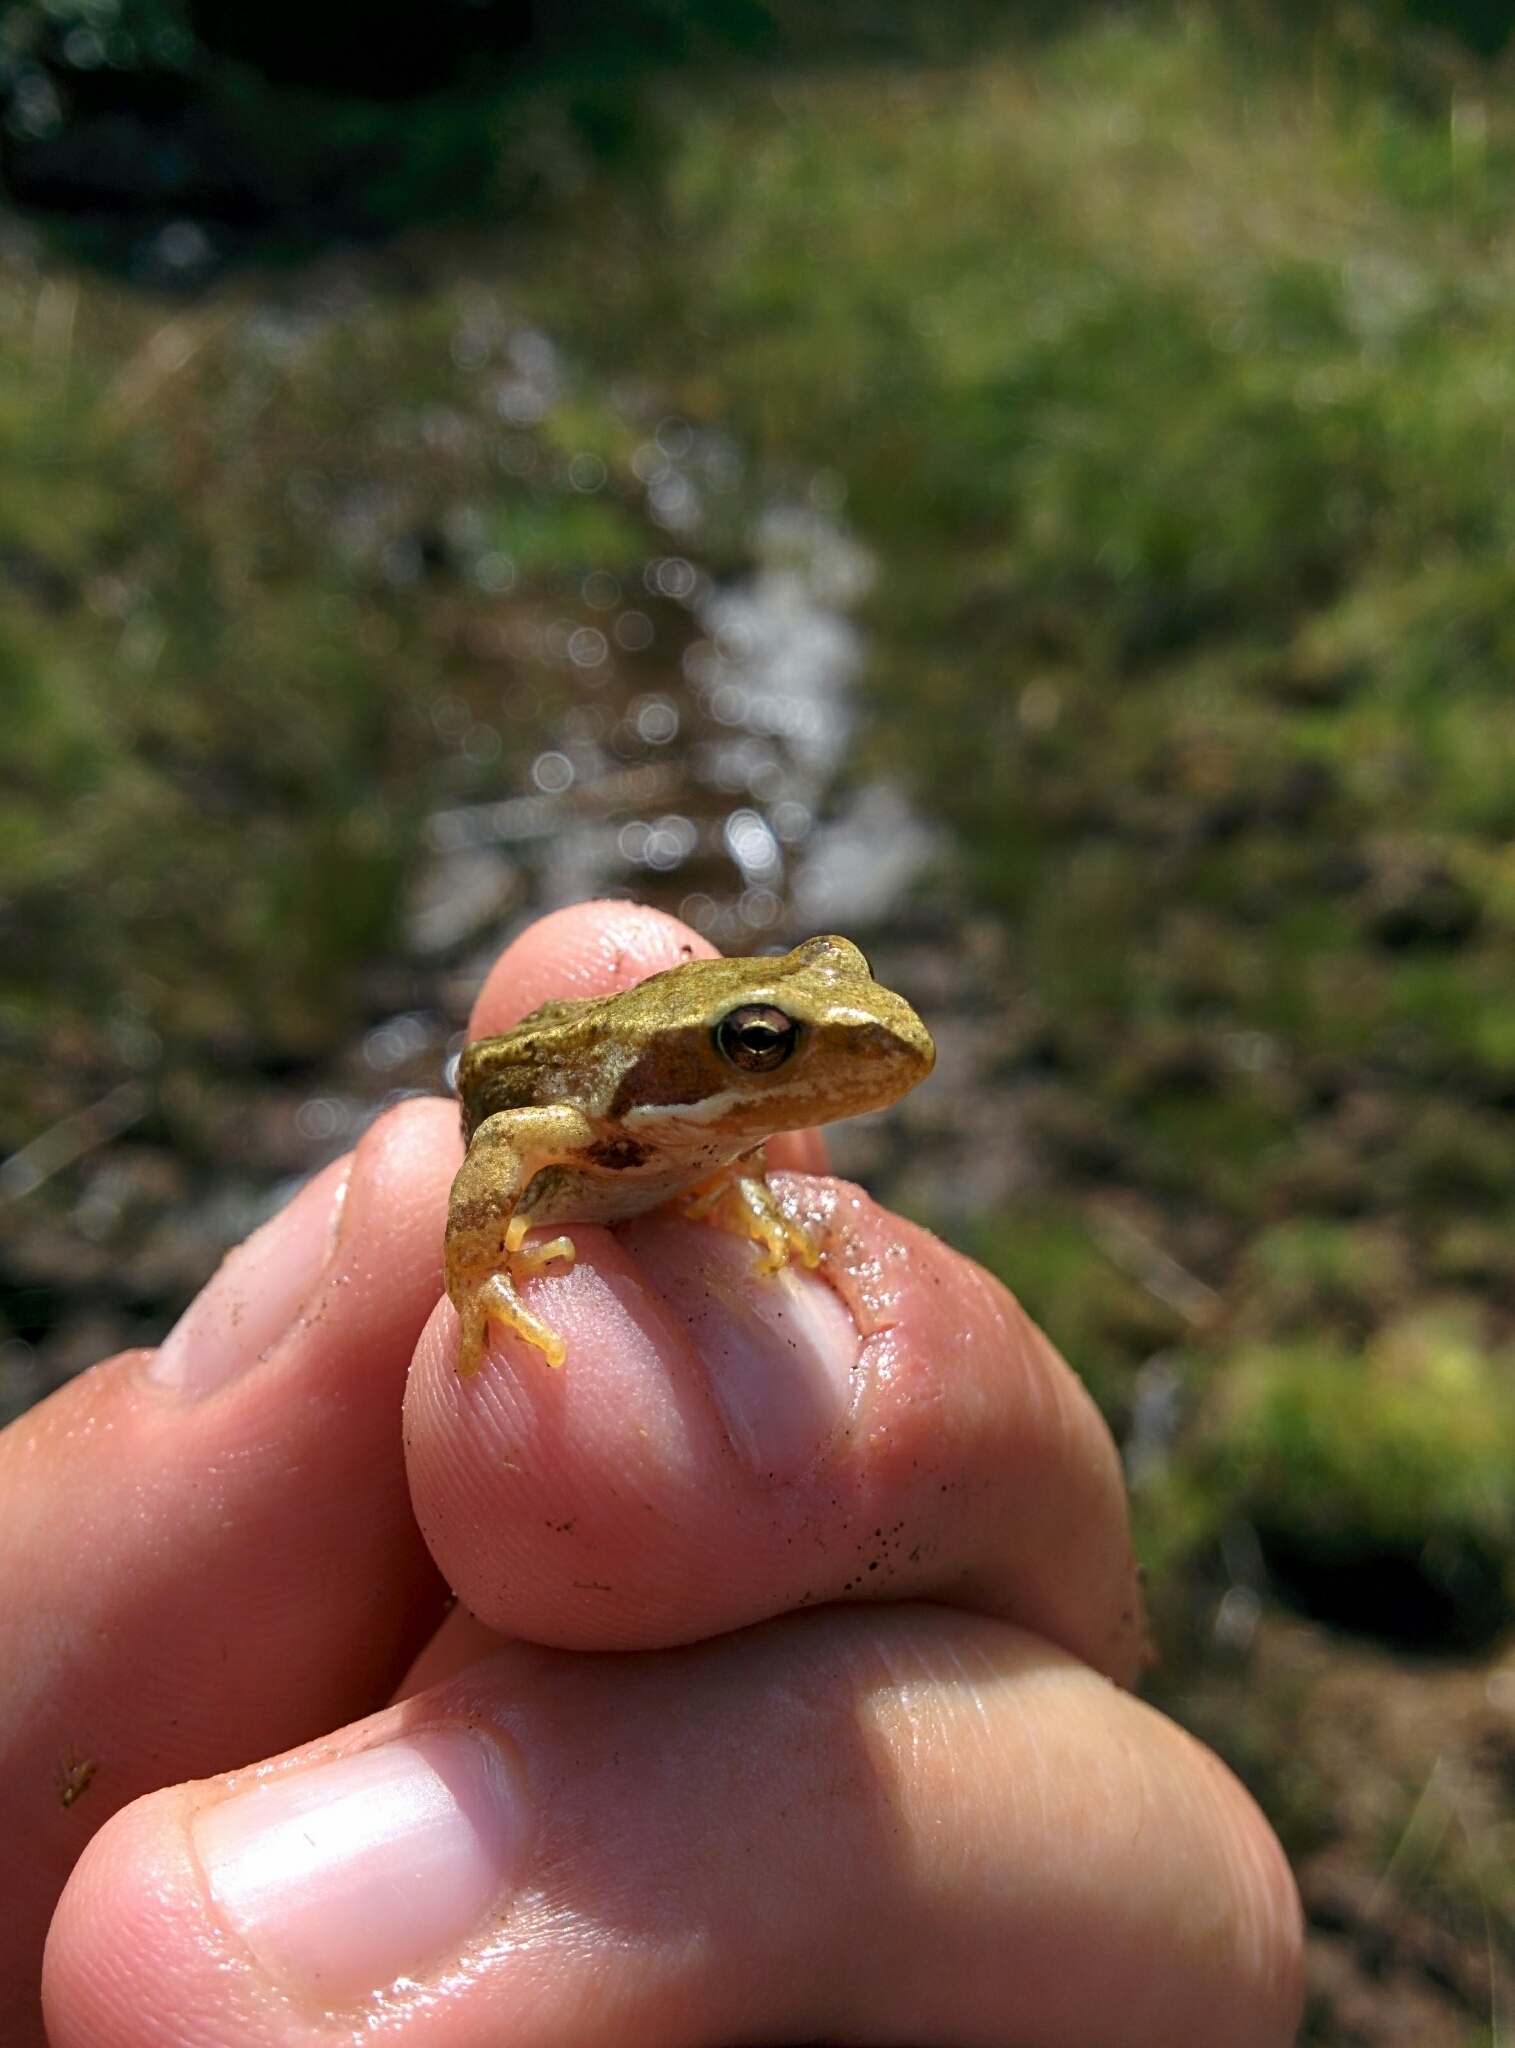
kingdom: Animalia
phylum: Chordata
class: Amphibia
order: Anura
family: Ranidae
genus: Rana
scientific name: Rana temporaria
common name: Common frog
